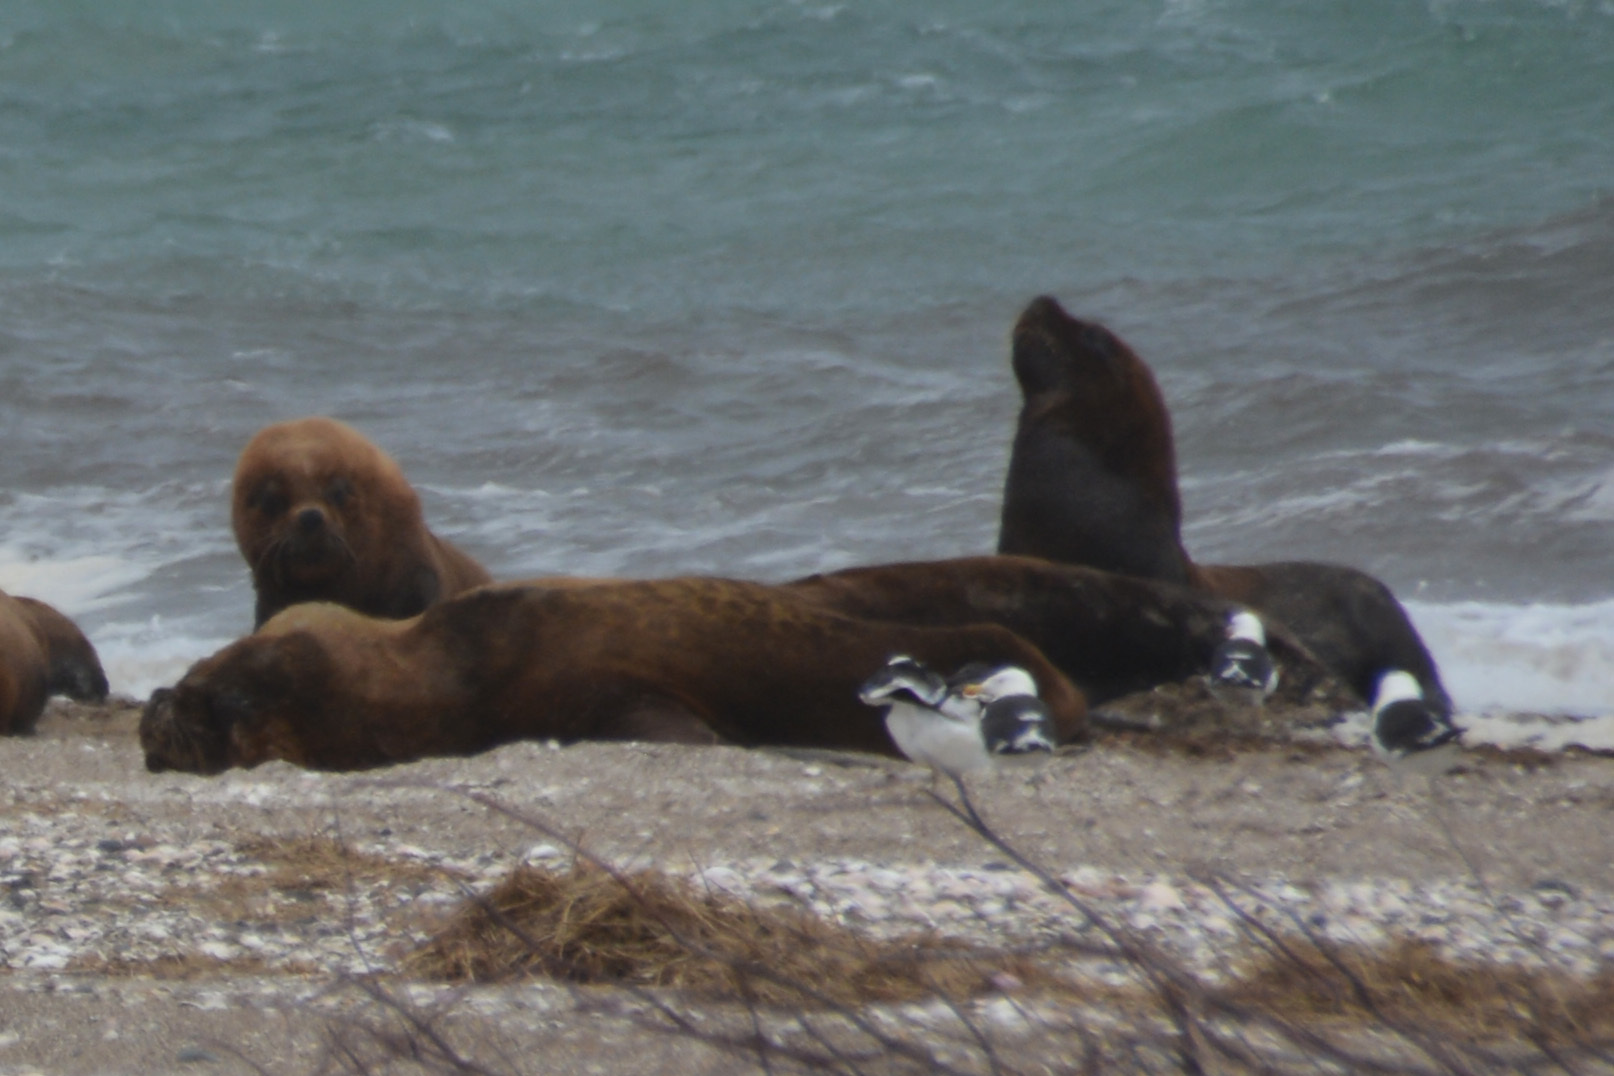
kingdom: Animalia
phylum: Chordata
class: Aves
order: Charadriiformes
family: Laridae
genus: Larus
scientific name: Larus dominicanus
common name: Kelp gull
